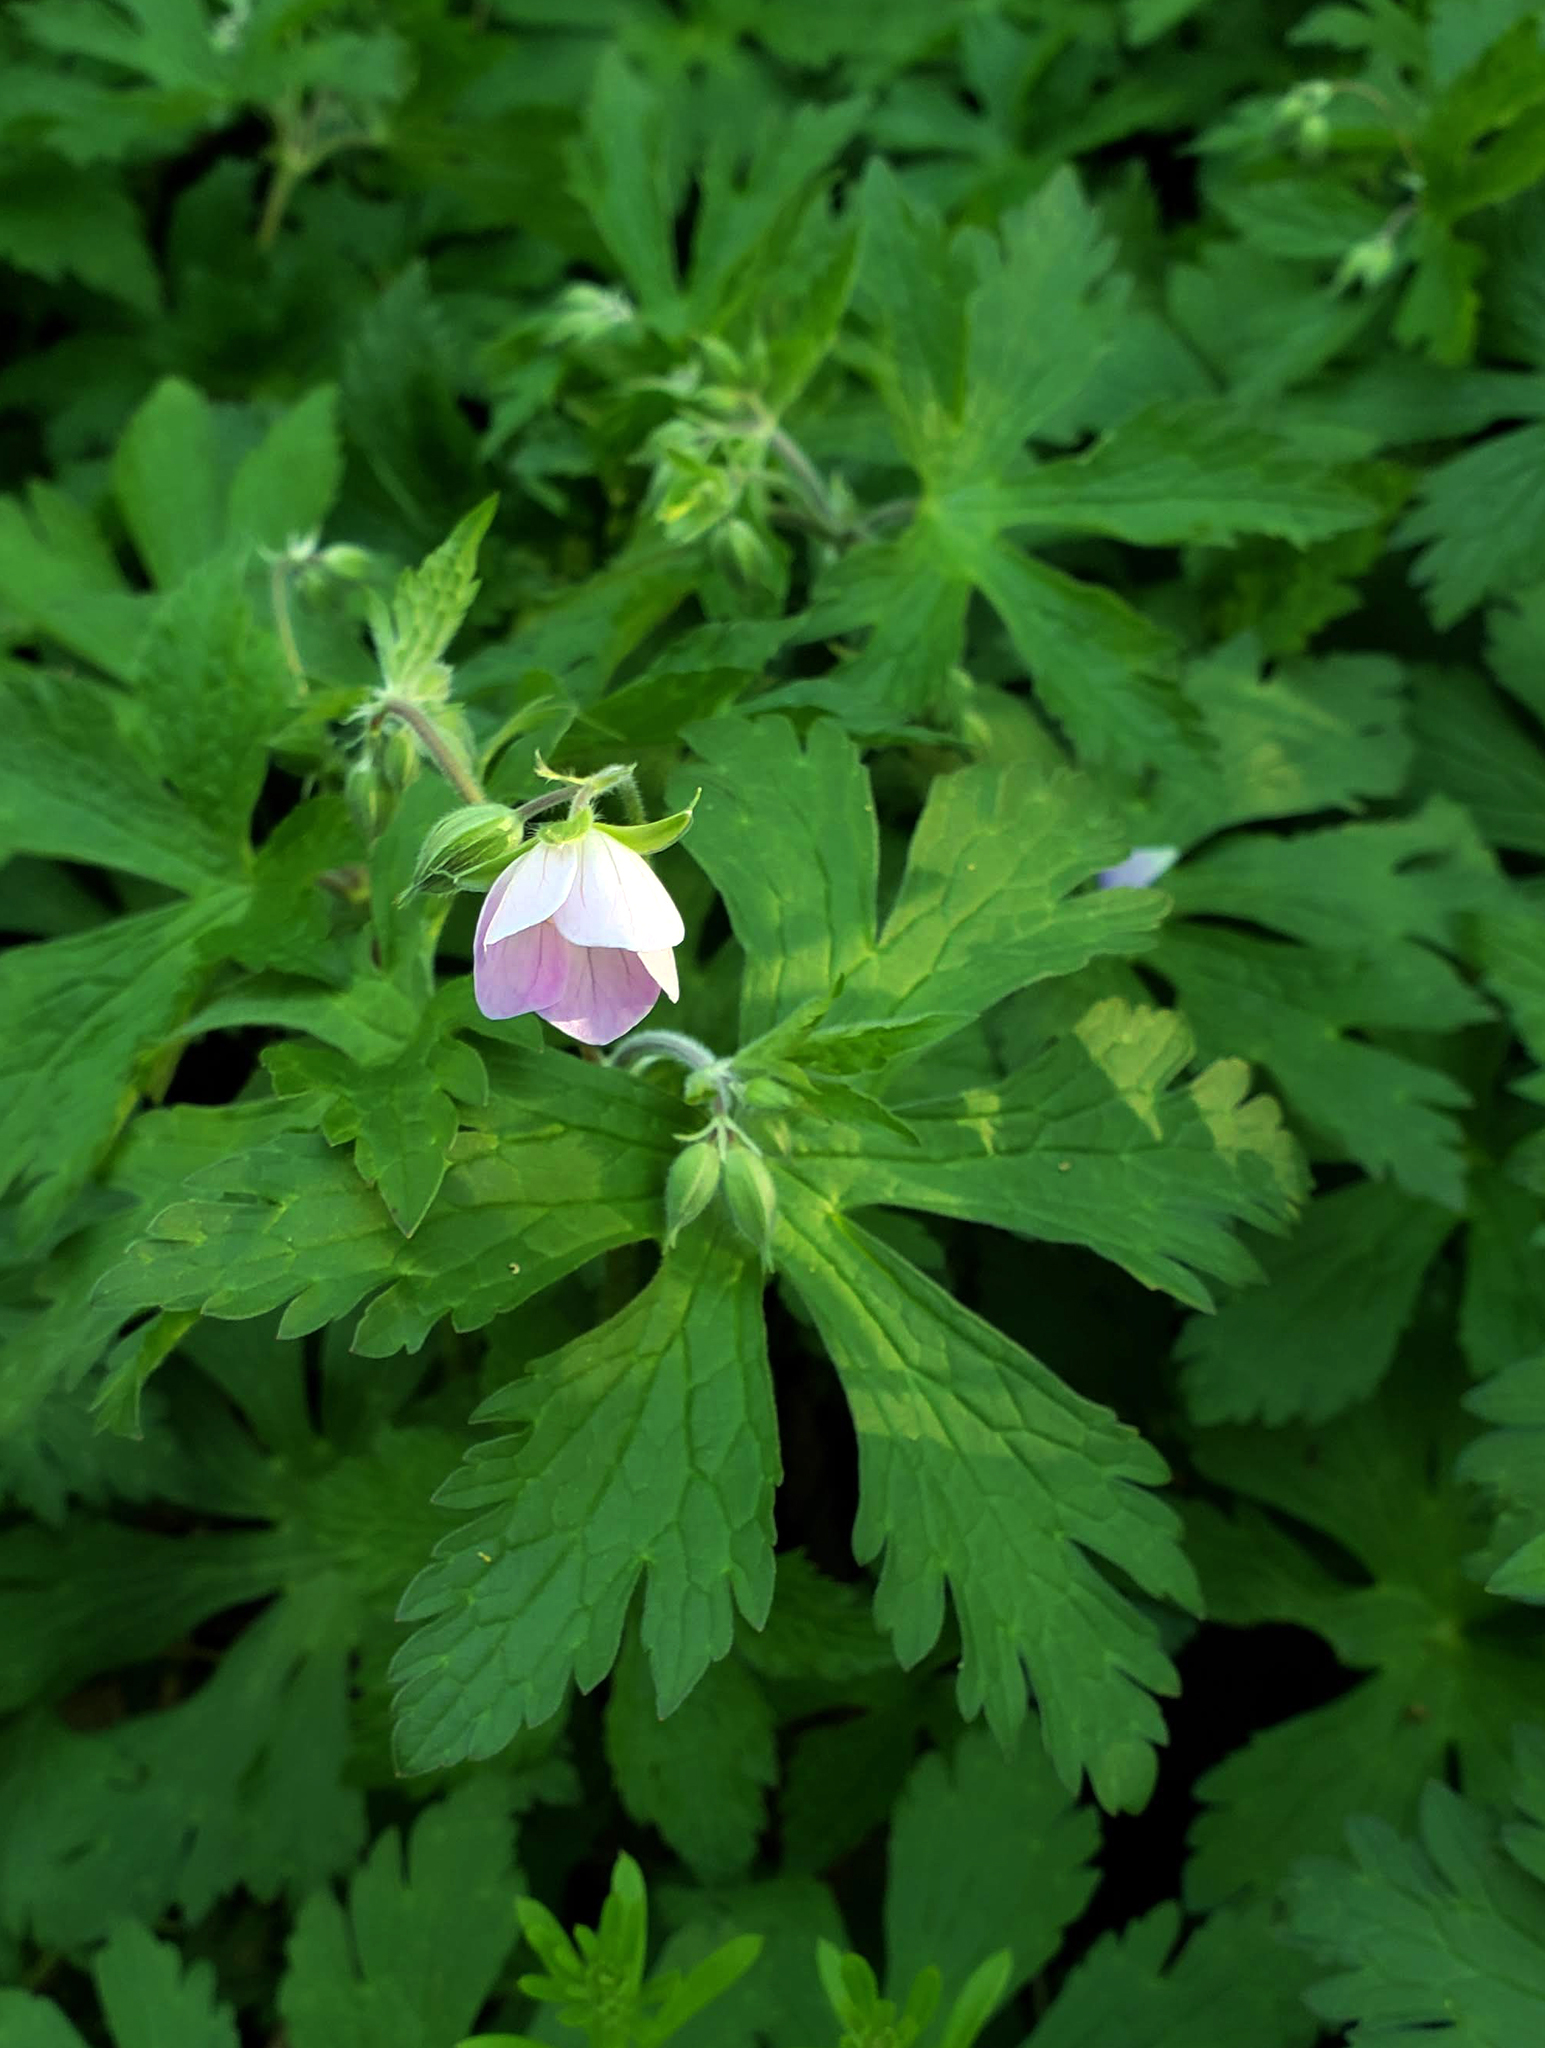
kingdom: Plantae
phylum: Tracheophyta
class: Magnoliopsida
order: Geraniales
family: Geraniaceae
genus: Geranium
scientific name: Geranium maculatum
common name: Spotted geranium
